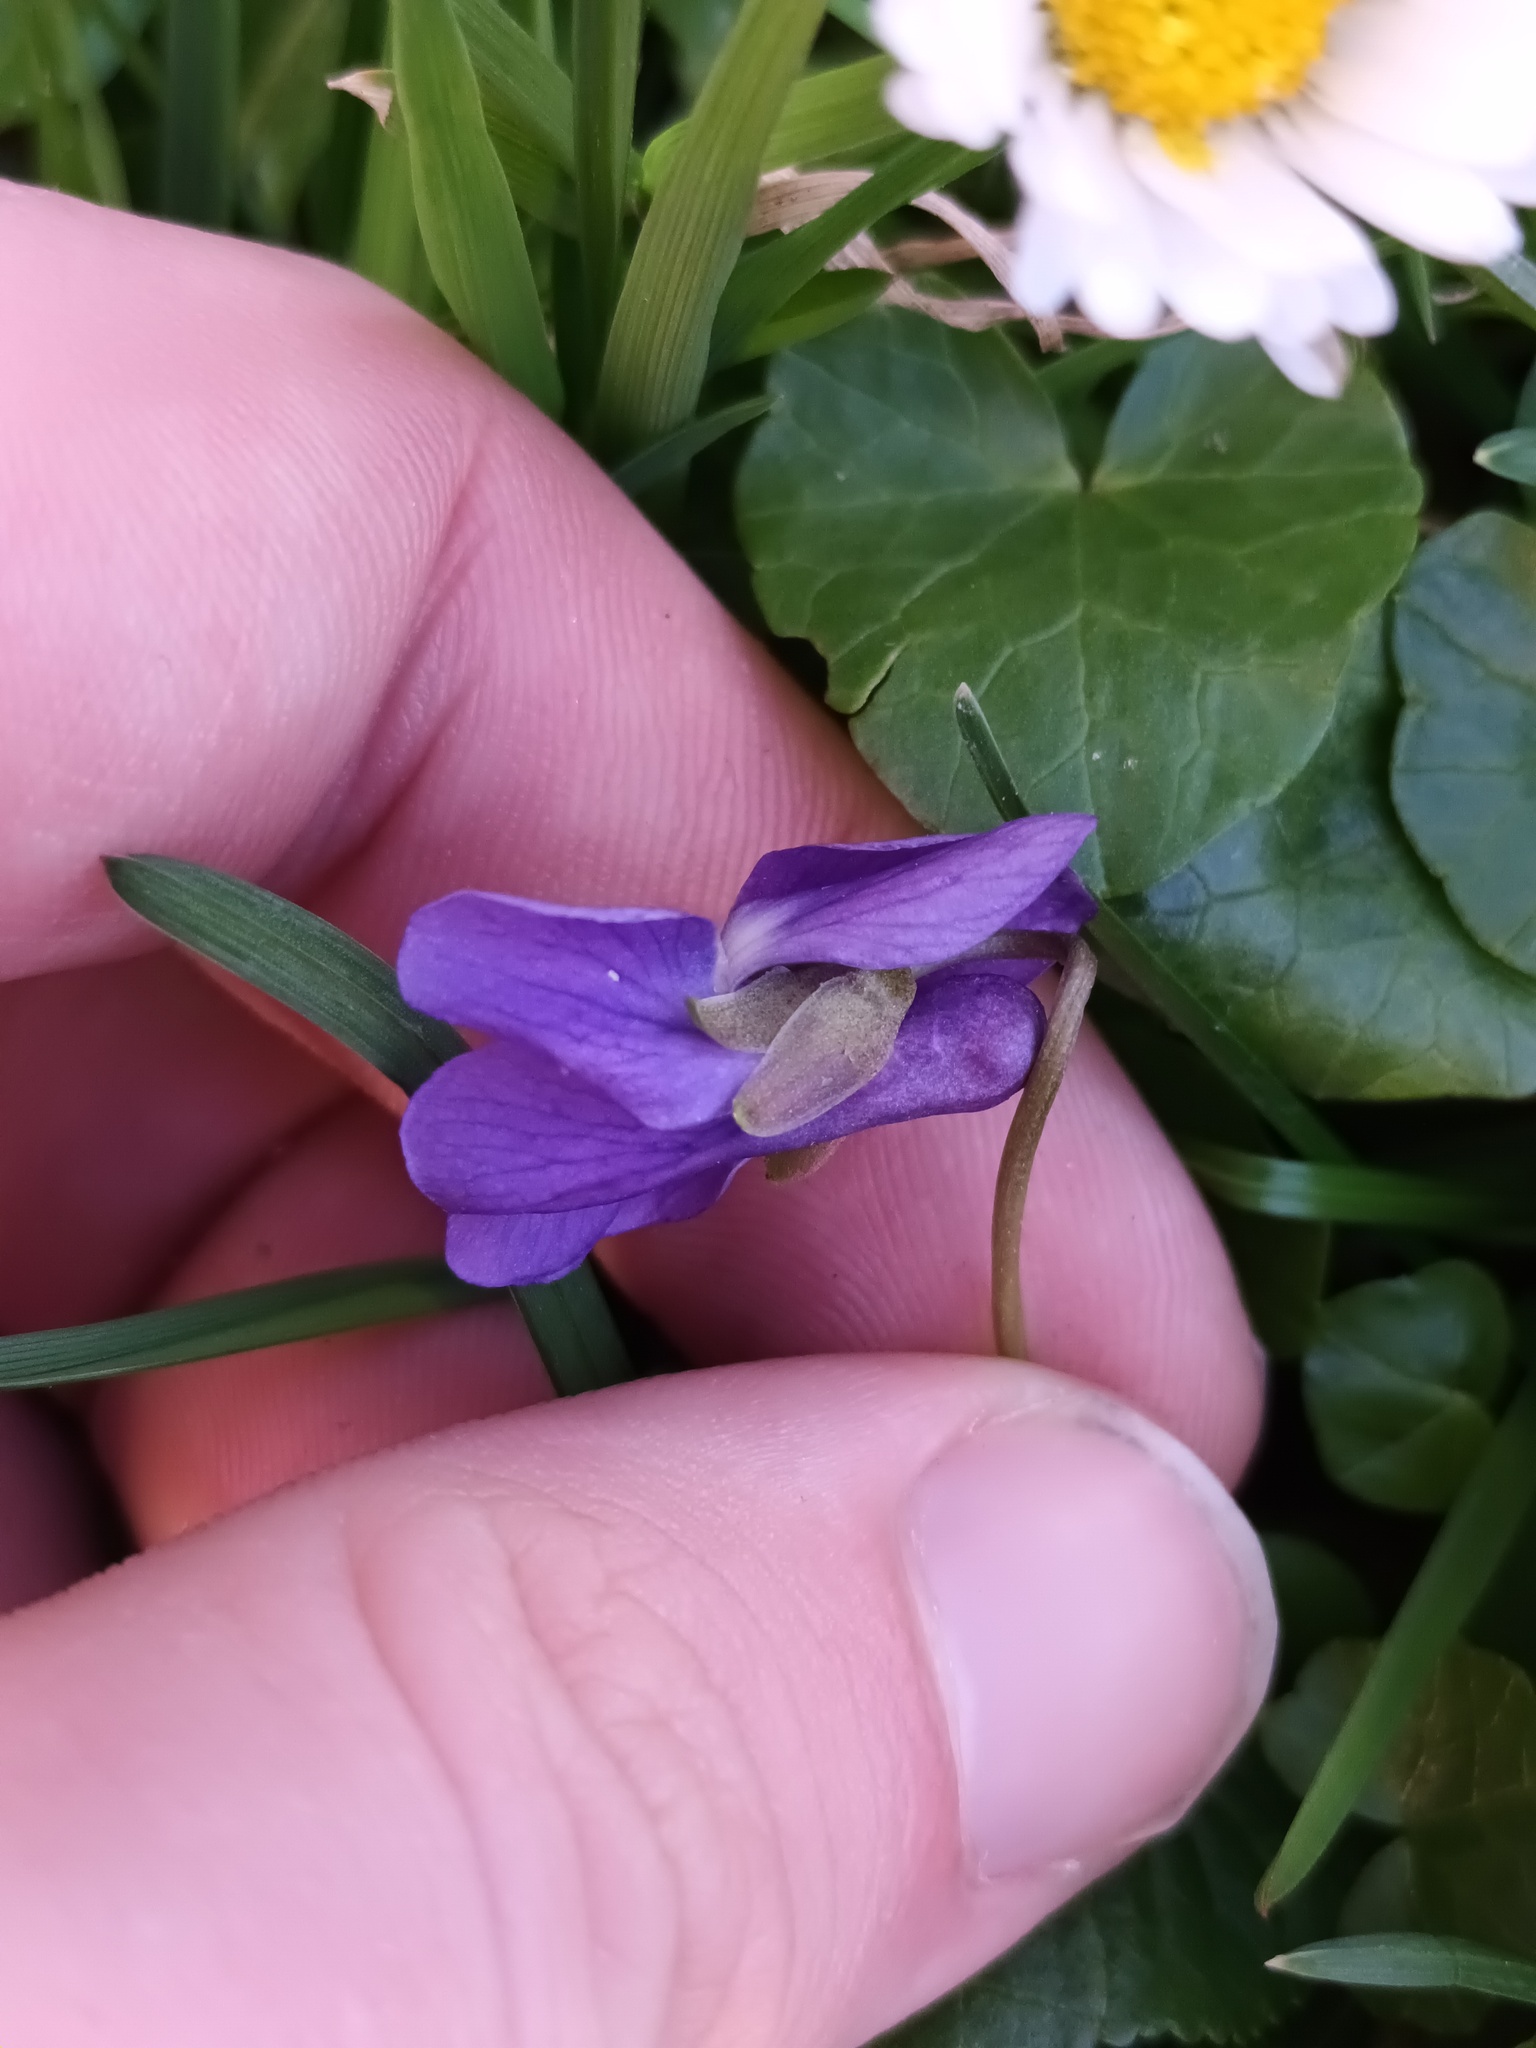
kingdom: Plantae
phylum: Tracheophyta
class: Magnoliopsida
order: Malpighiales
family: Violaceae
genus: Viola
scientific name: Viola odorata
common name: Sweet violet
